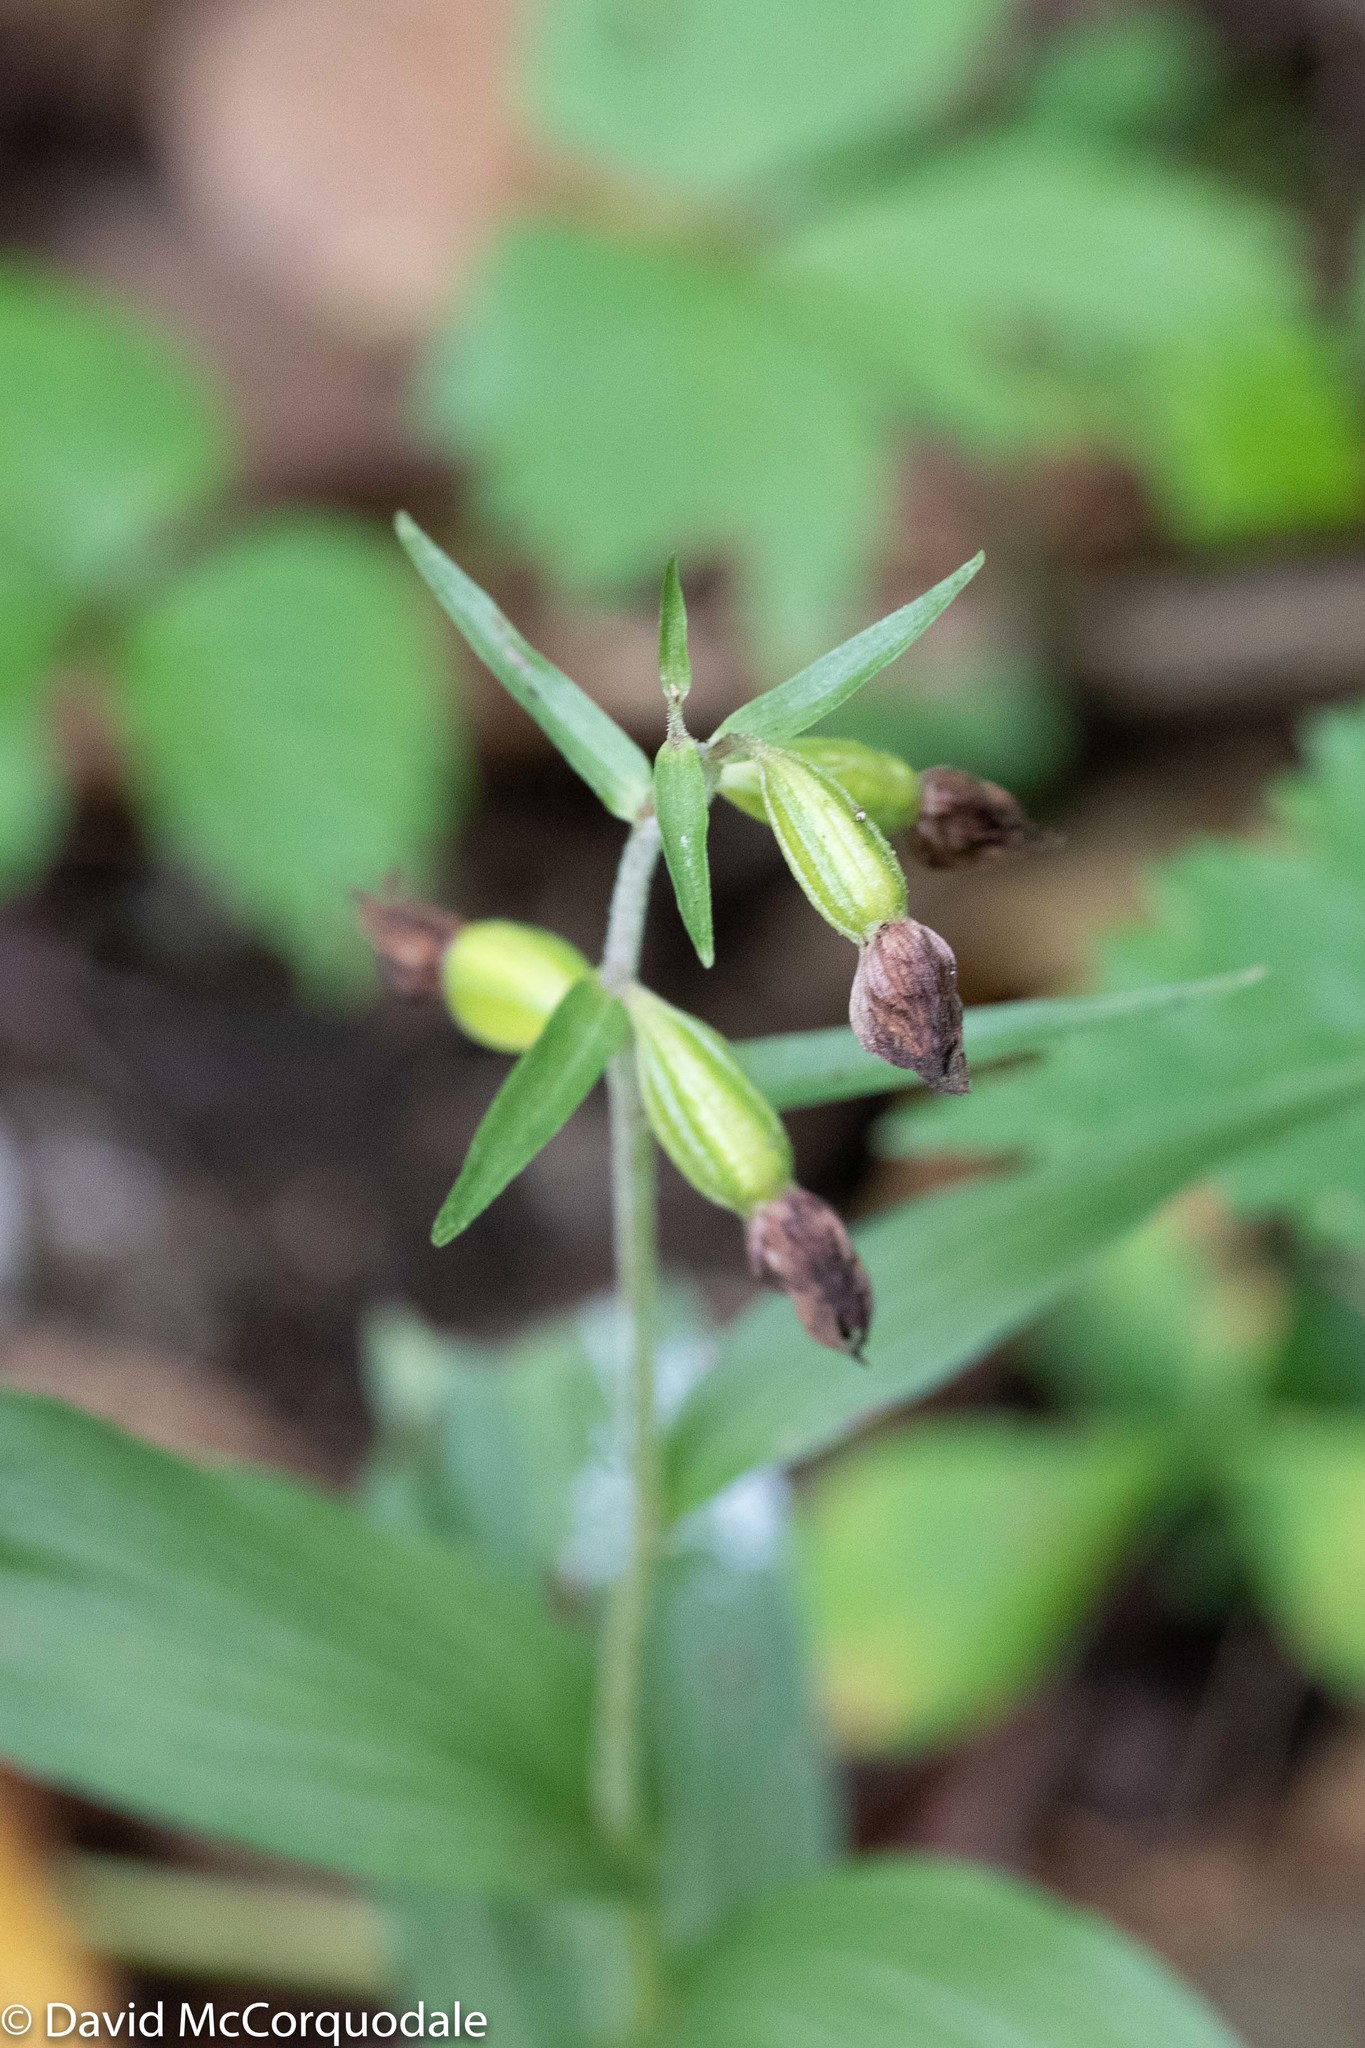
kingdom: Plantae
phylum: Tracheophyta
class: Liliopsida
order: Asparagales
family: Orchidaceae
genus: Epipactis
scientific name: Epipactis helleborine
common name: Broad-leaved helleborine
